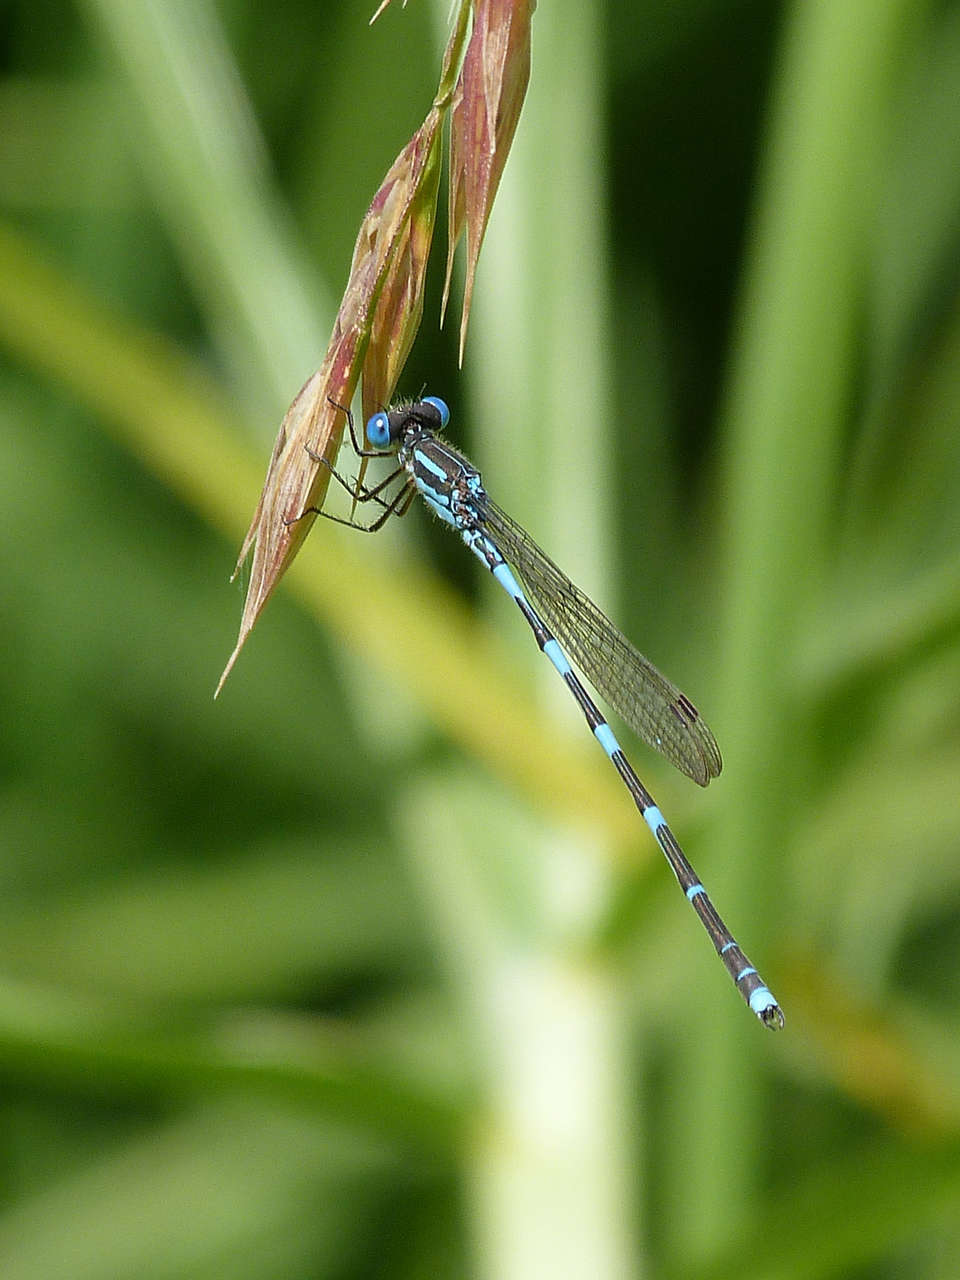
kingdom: Animalia
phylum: Arthropoda
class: Insecta
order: Odonata
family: Lestidae
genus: Austrolestes
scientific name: Austrolestes leda
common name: Wandering ringtail
